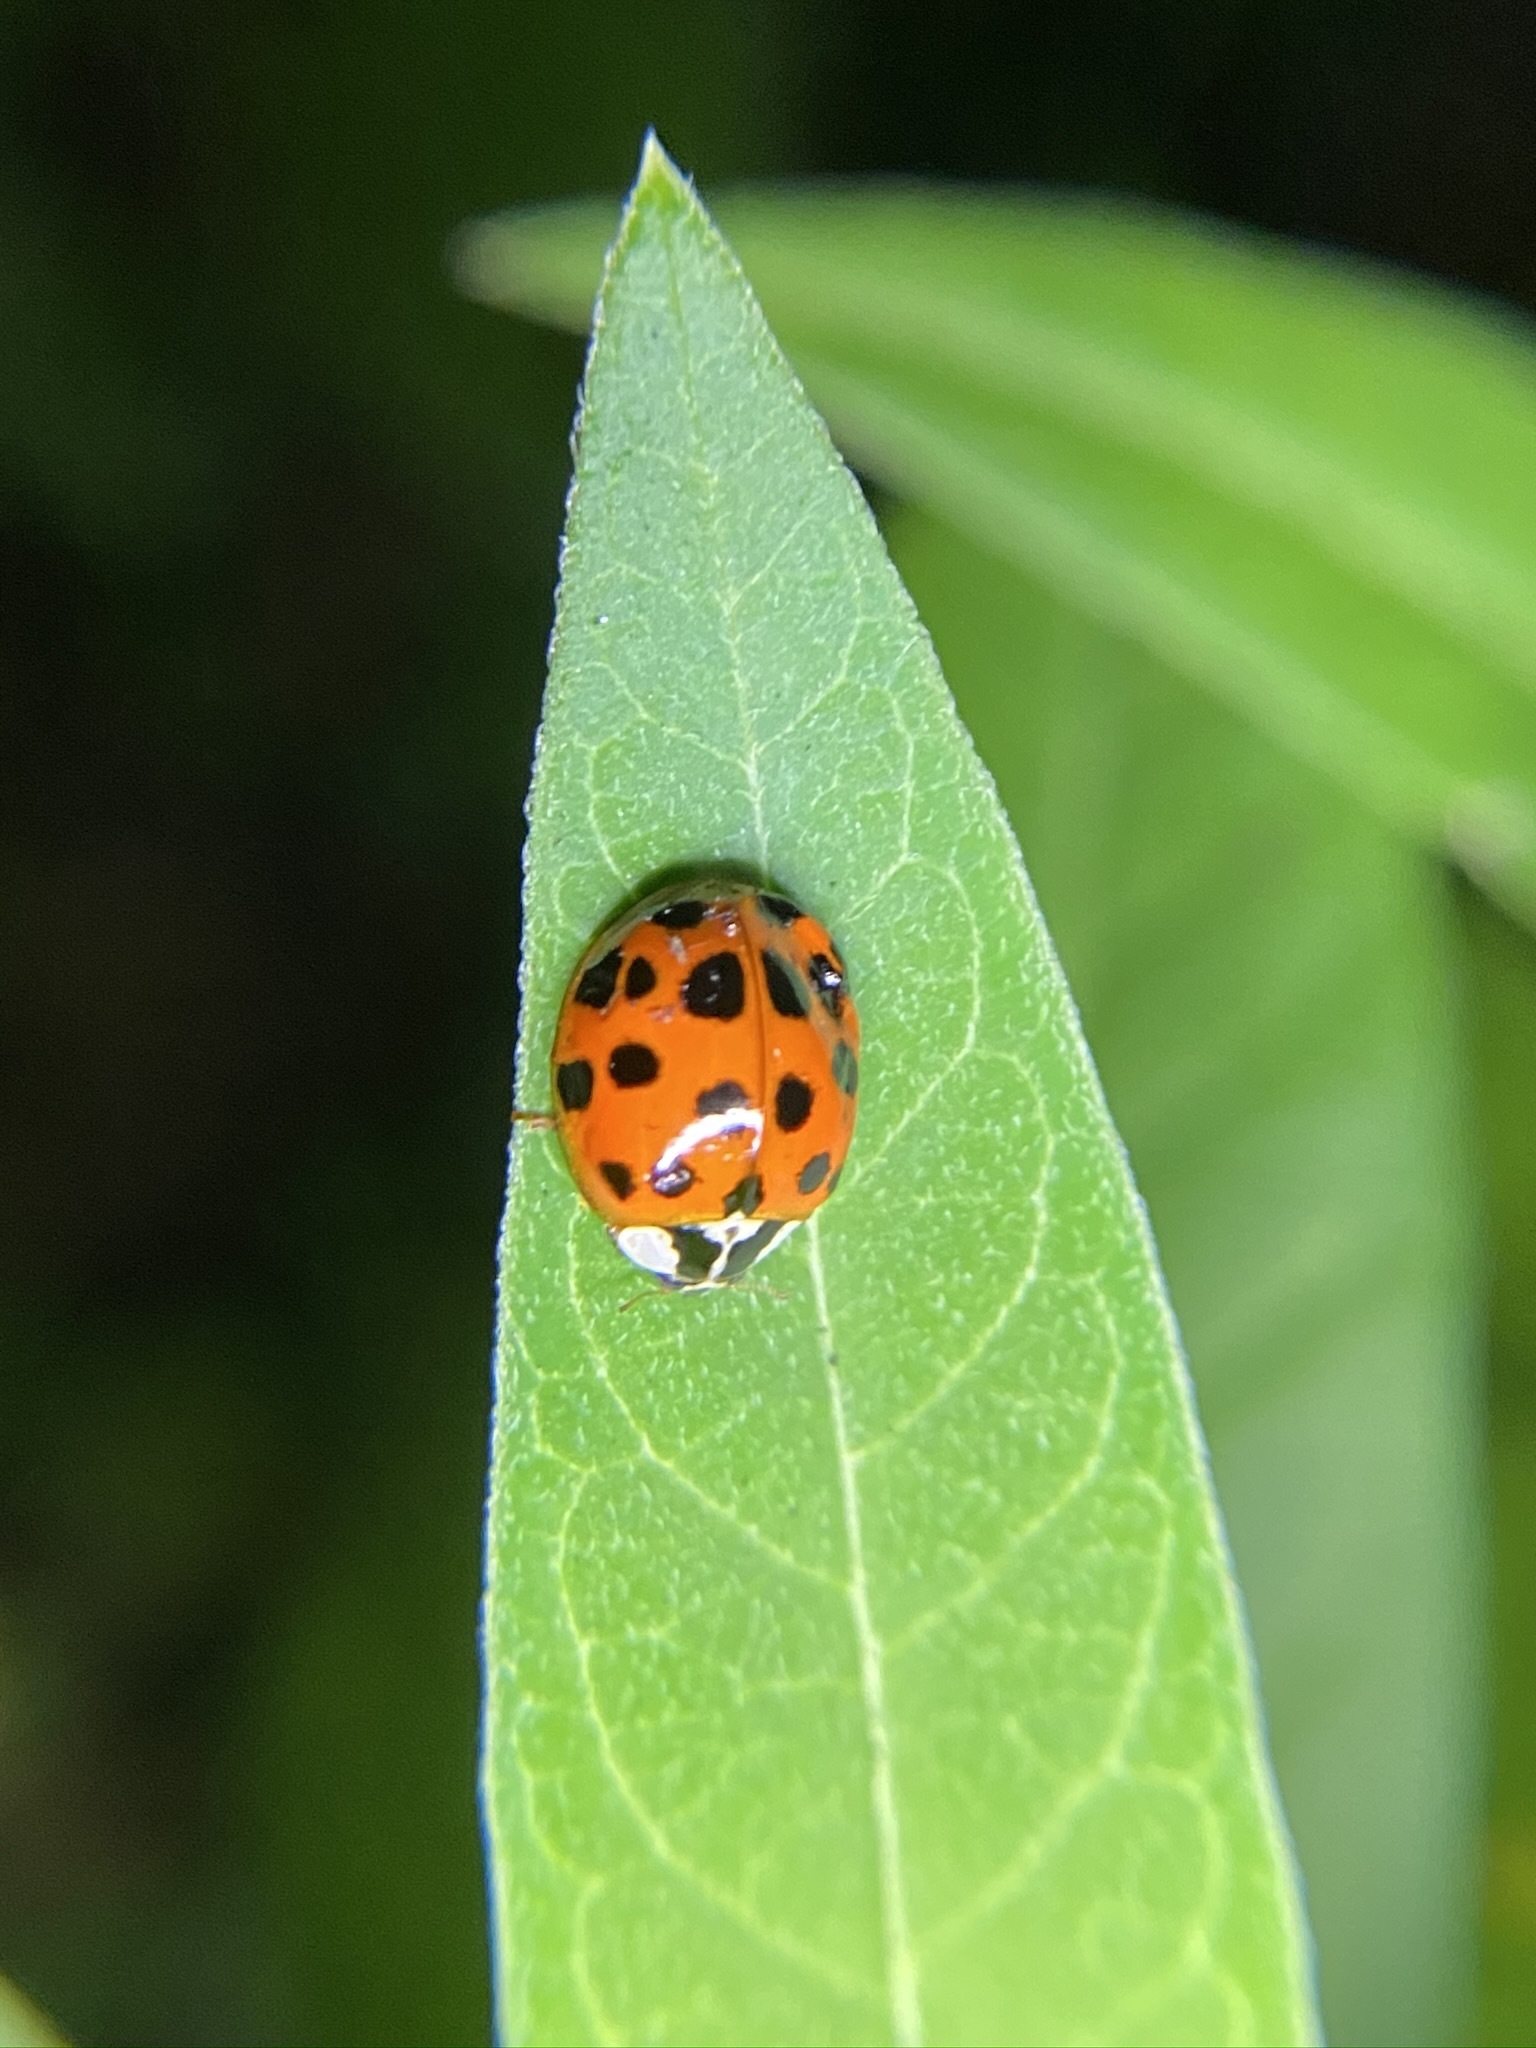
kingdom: Animalia
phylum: Arthropoda
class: Insecta
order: Coleoptera
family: Coccinellidae
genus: Harmonia
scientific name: Harmonia axyridis
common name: Harlequin ladybird
